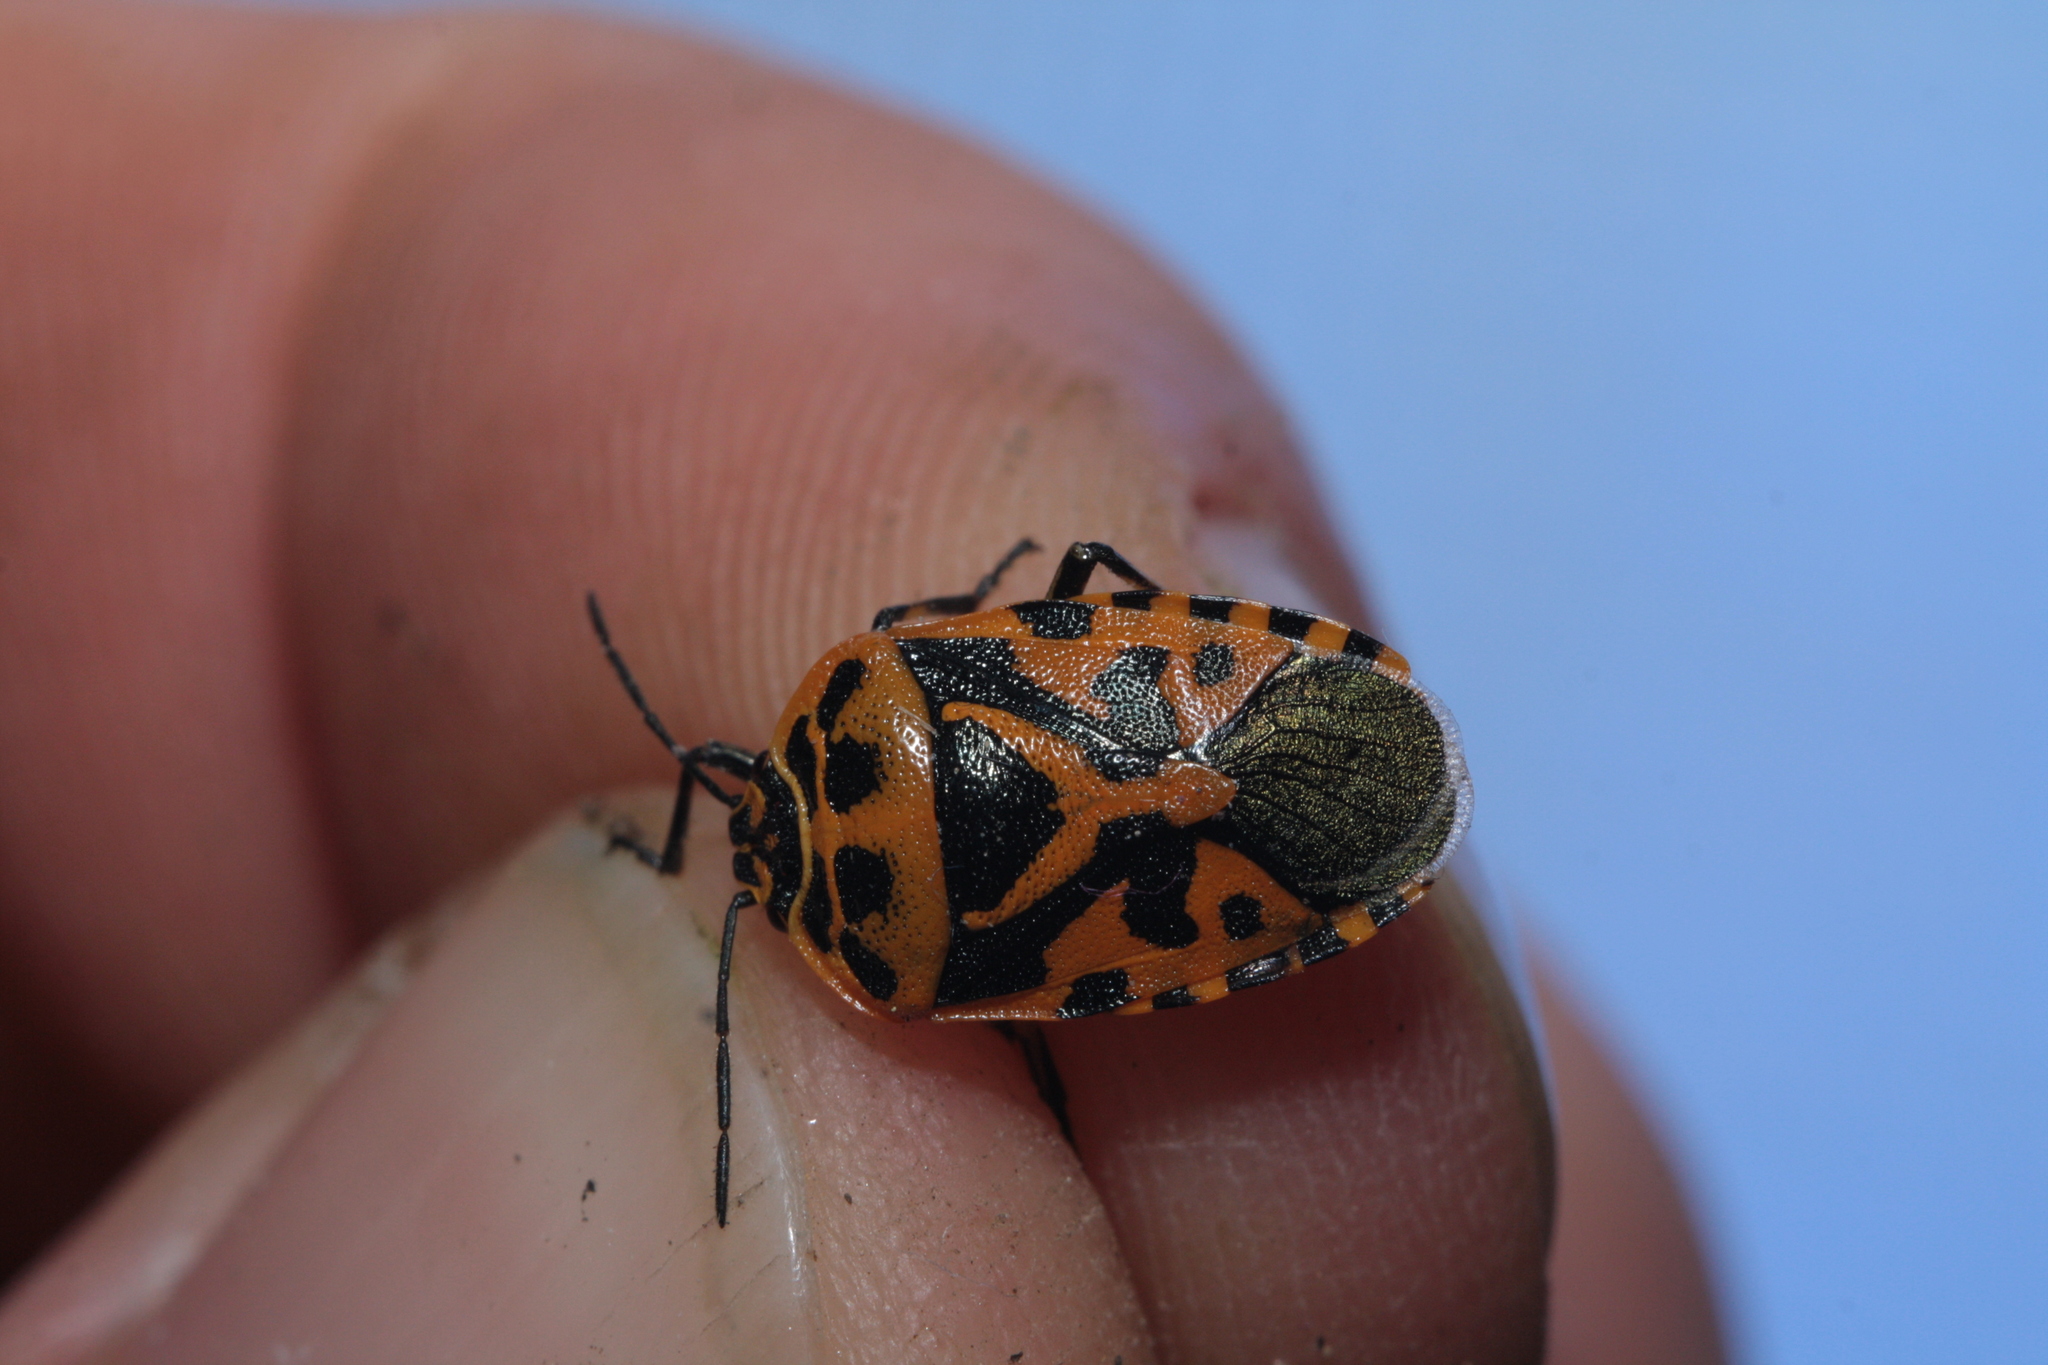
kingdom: Animalia
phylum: Arthropoda
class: Insecta
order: Hemiptera
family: Pentatomidae
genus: Eurydema
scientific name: Eurydema ventralis
